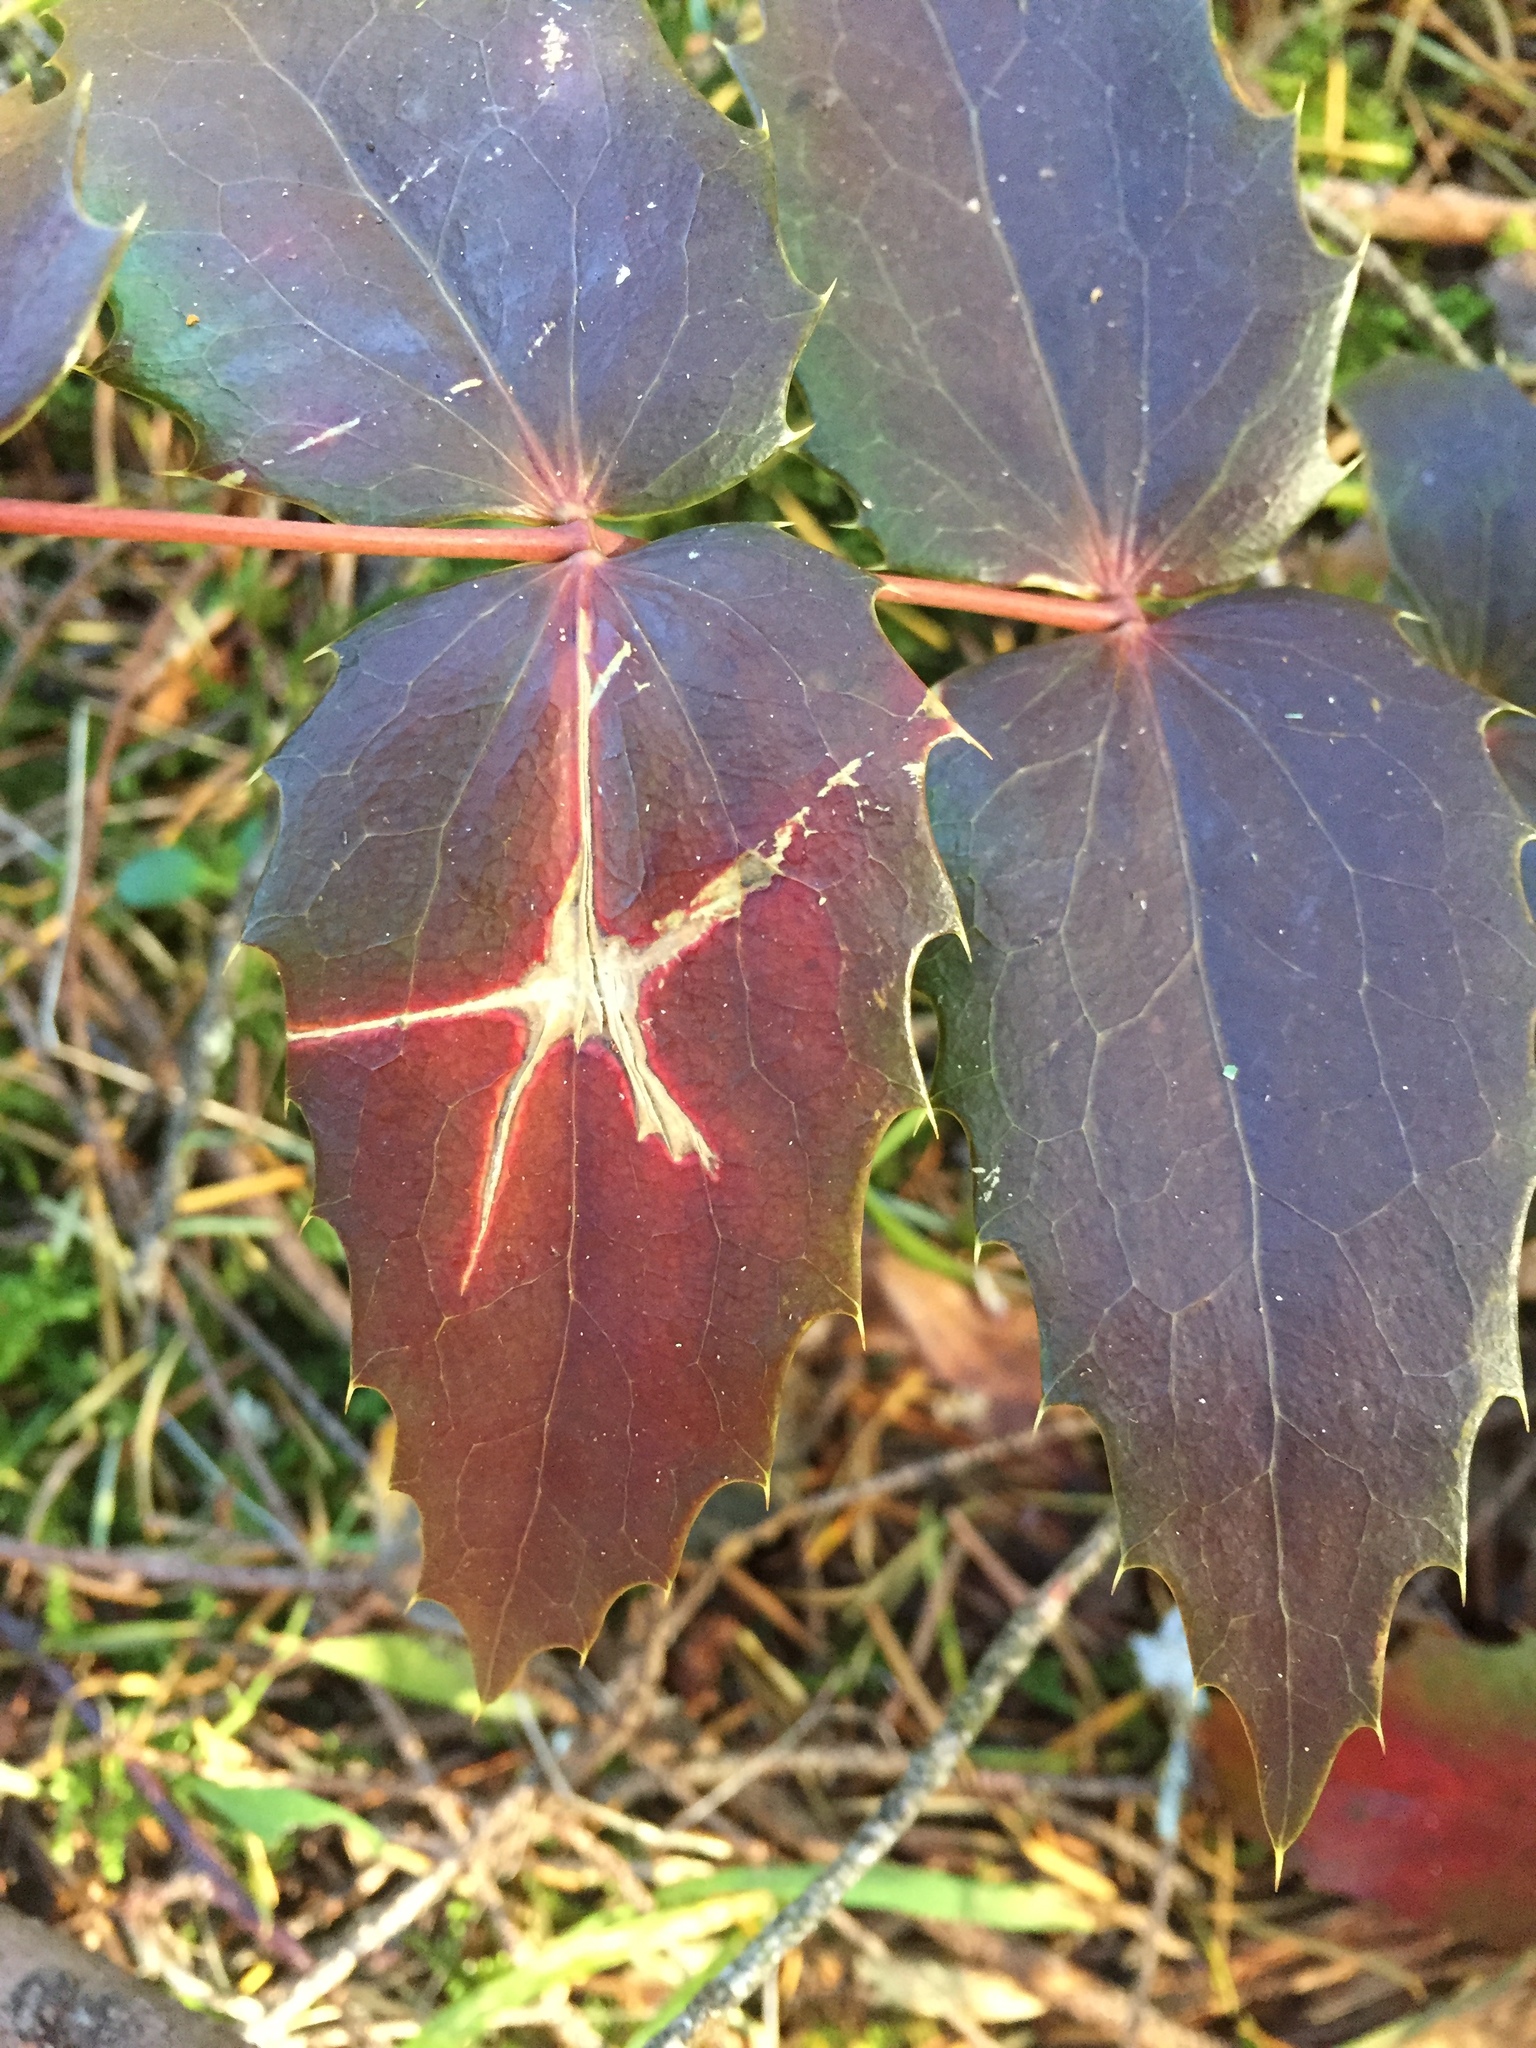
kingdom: Plantae
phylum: Tracheophyta
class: Magnoliopsida
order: Ranunculales
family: Berberidaceae
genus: Mahonia
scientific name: Mahonia nervosa
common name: Cascade oregon-grape
